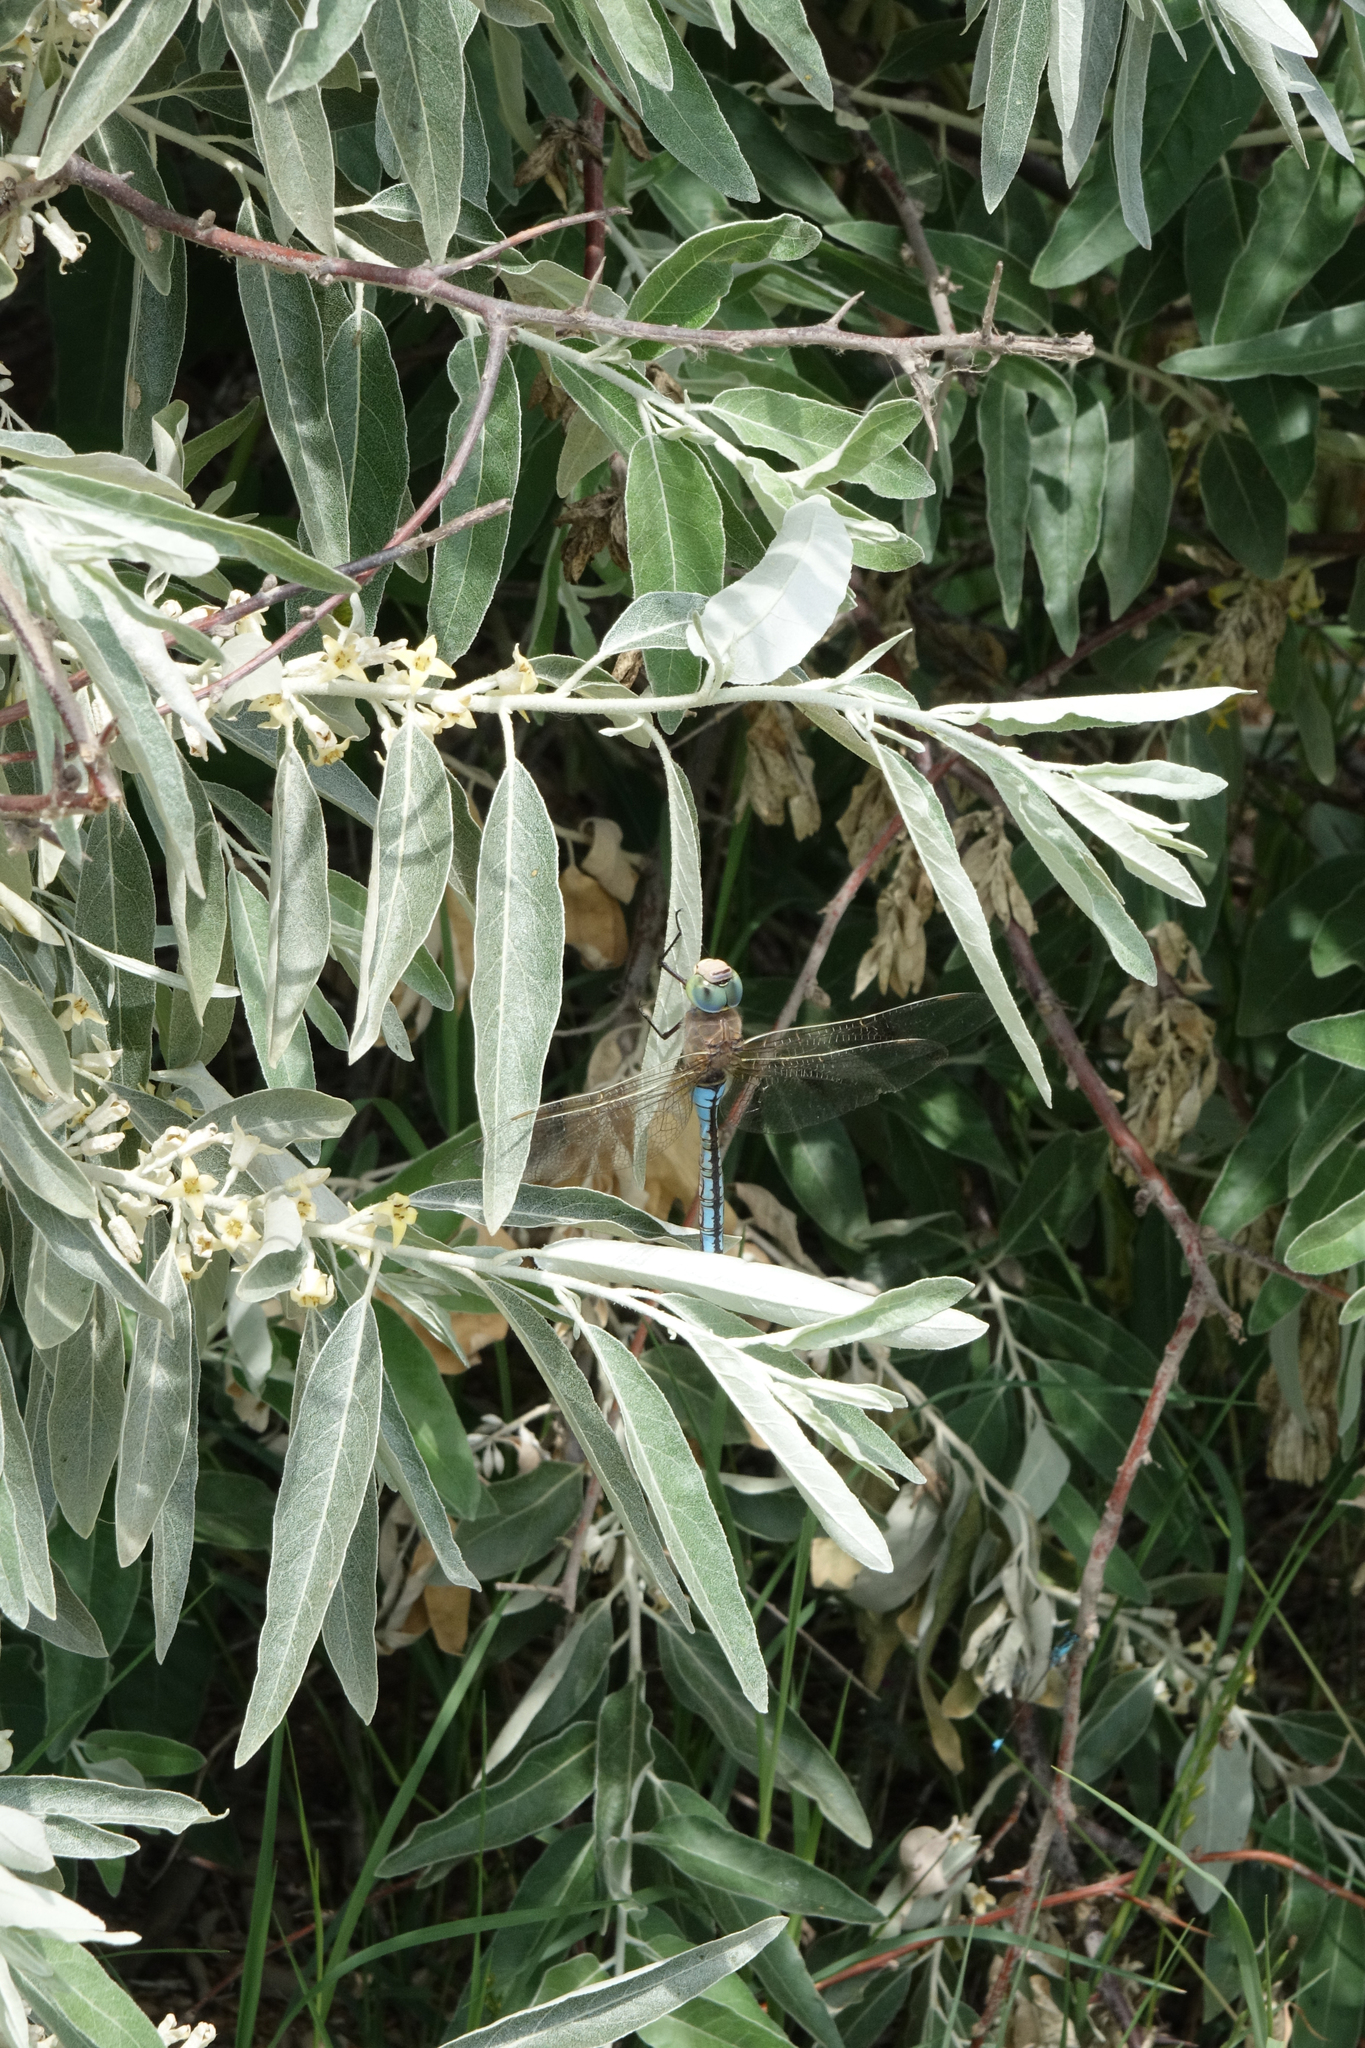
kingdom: Plantae
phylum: Tracheophyta
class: Magnoliopsida
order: Rosales
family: Elaeagnaceae
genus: Elaeagnus
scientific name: Elaeagnus angustifolia
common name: Russian olive
